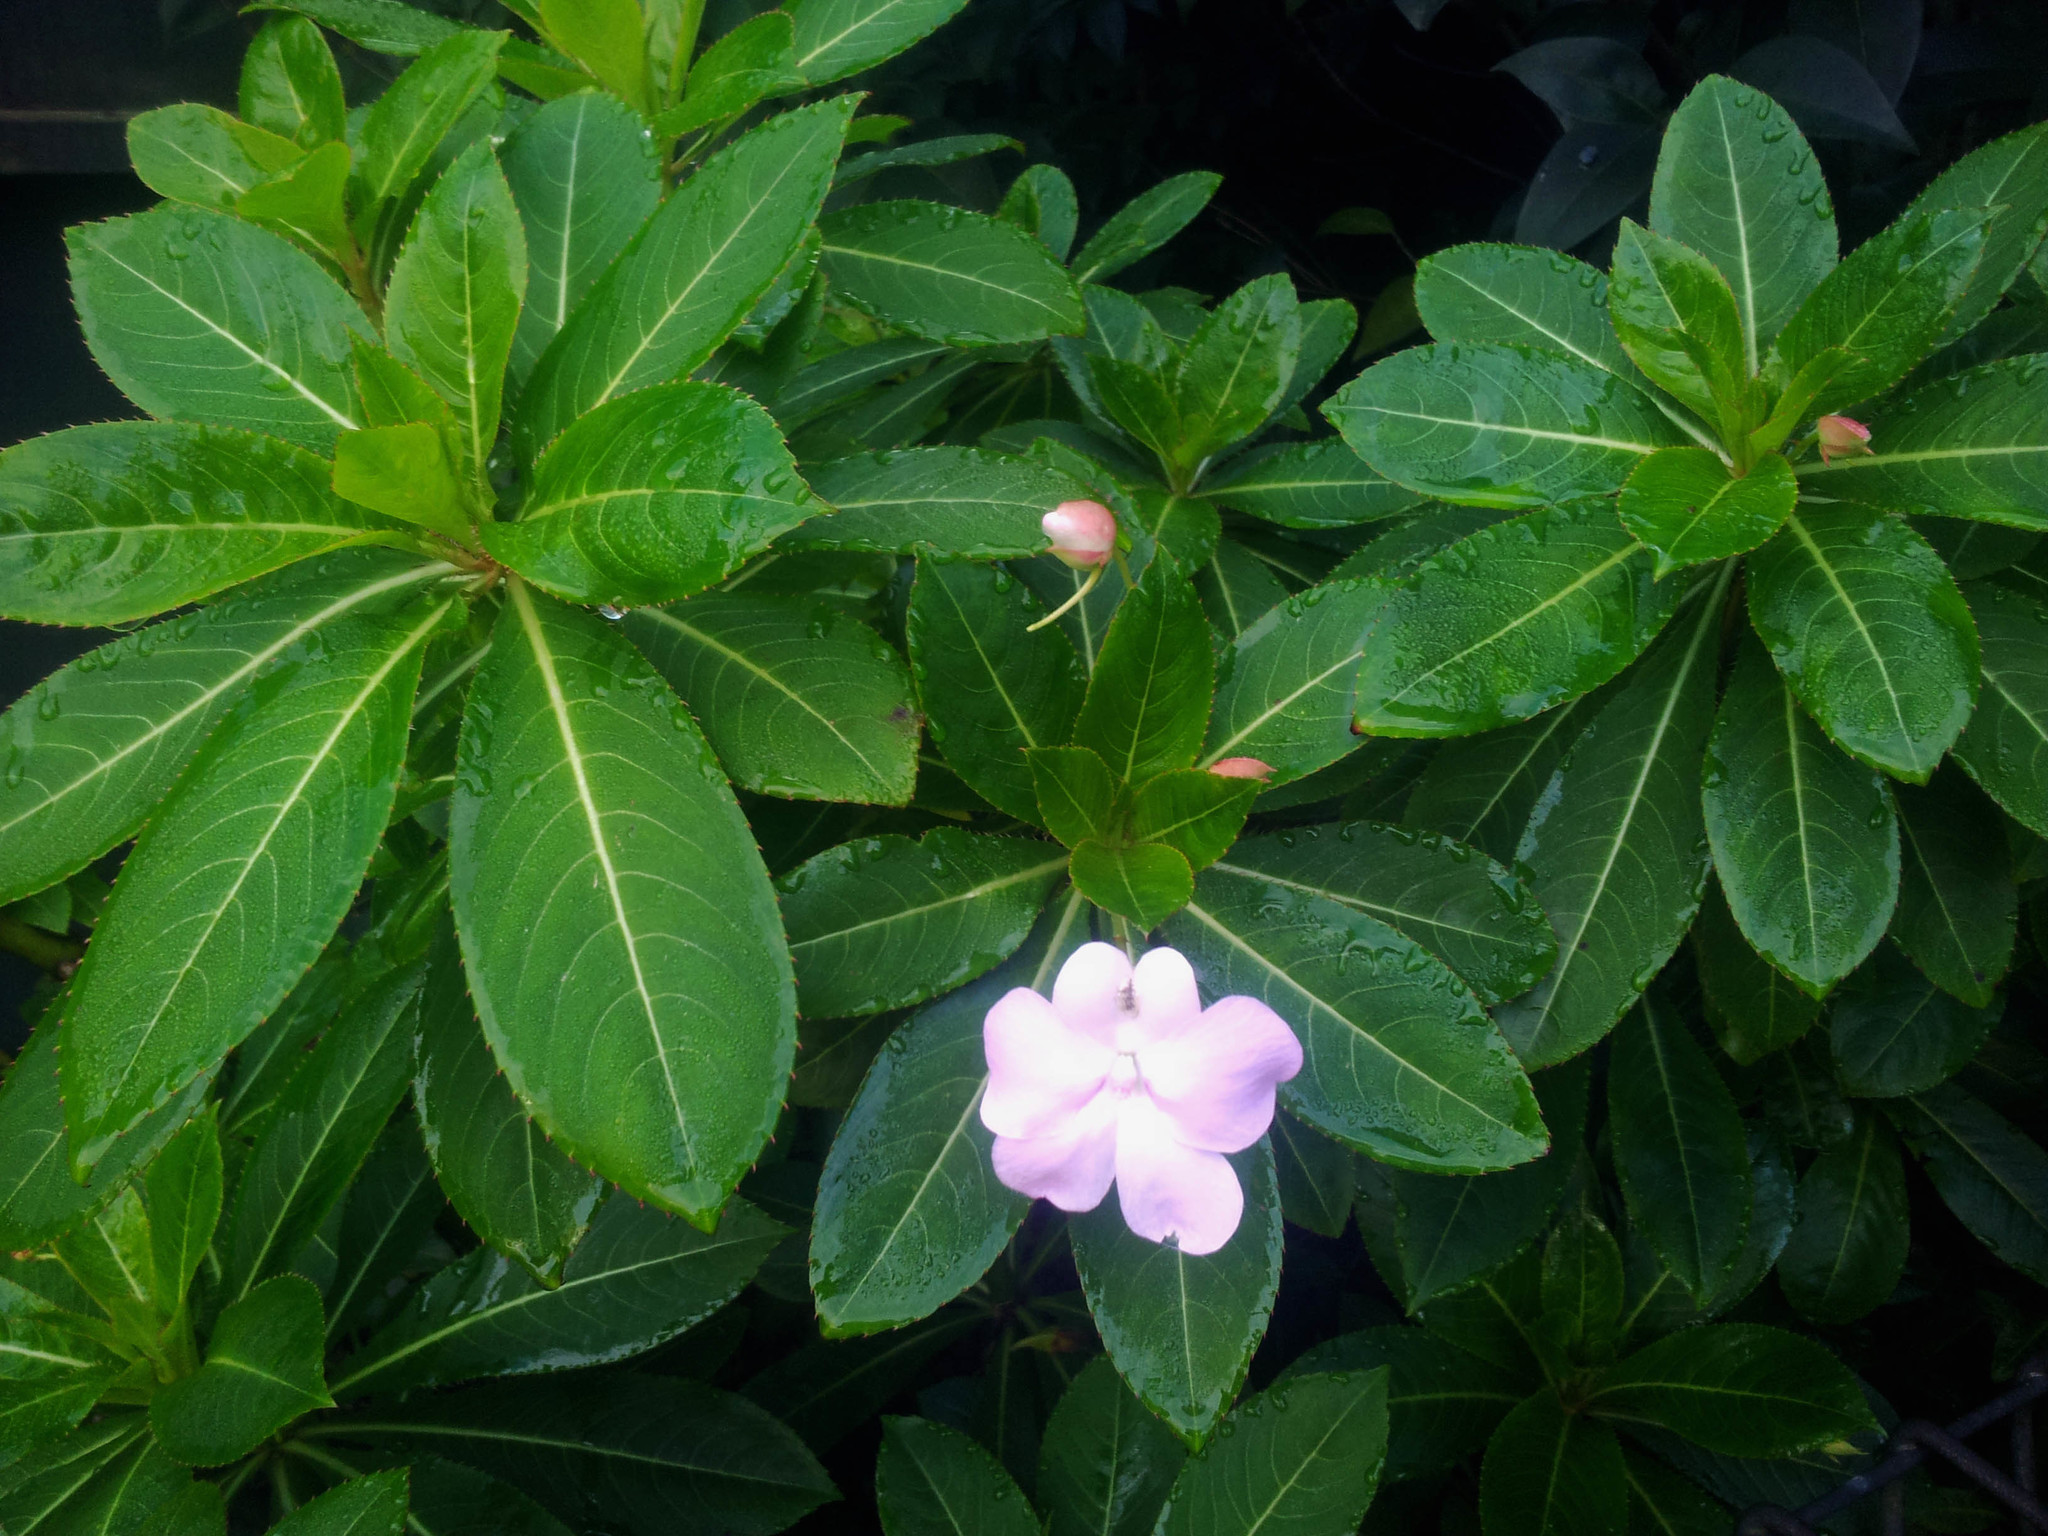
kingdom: Plantae
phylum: Tracheophyta
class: Magnoliopsida
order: Ericales
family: Balsaminaceae
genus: Impatiens
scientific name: Impatiens sodenii
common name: Oliver's touch-me-not
